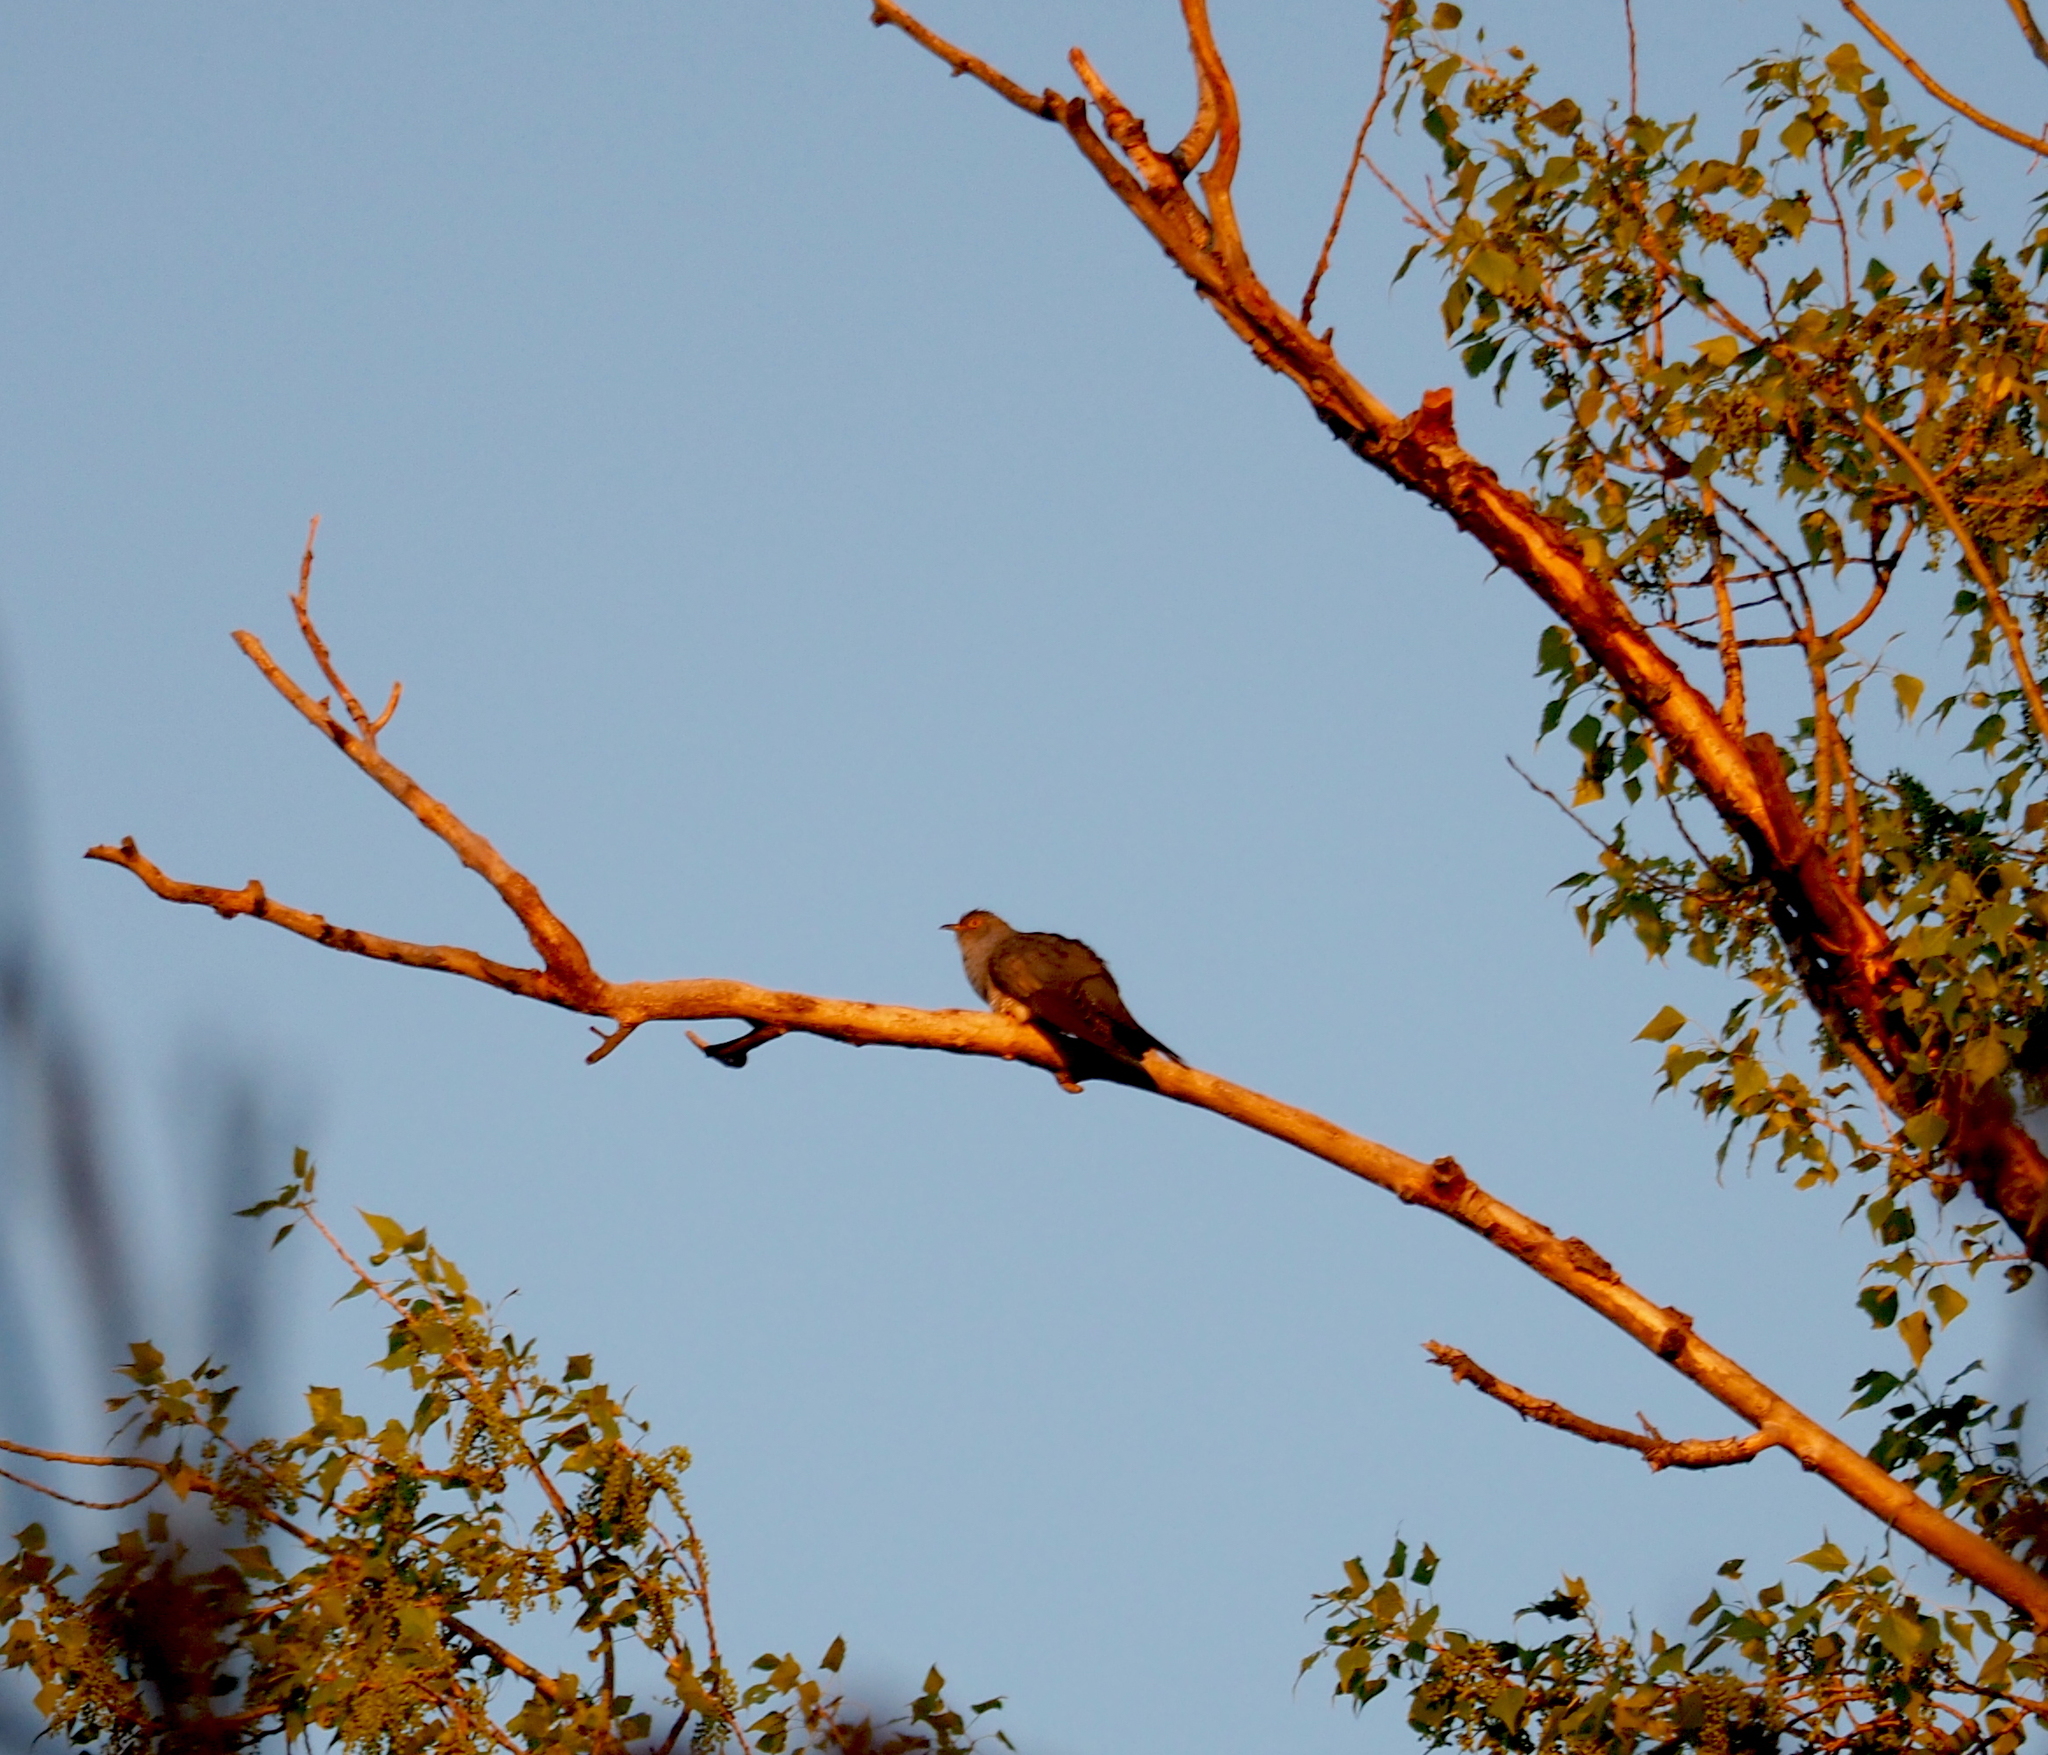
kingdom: Animalia
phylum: Chordata
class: Aves
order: Cuculiformes
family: Cuculidae
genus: Cuculus
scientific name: Cuculus canorus
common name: Common cuckoo
